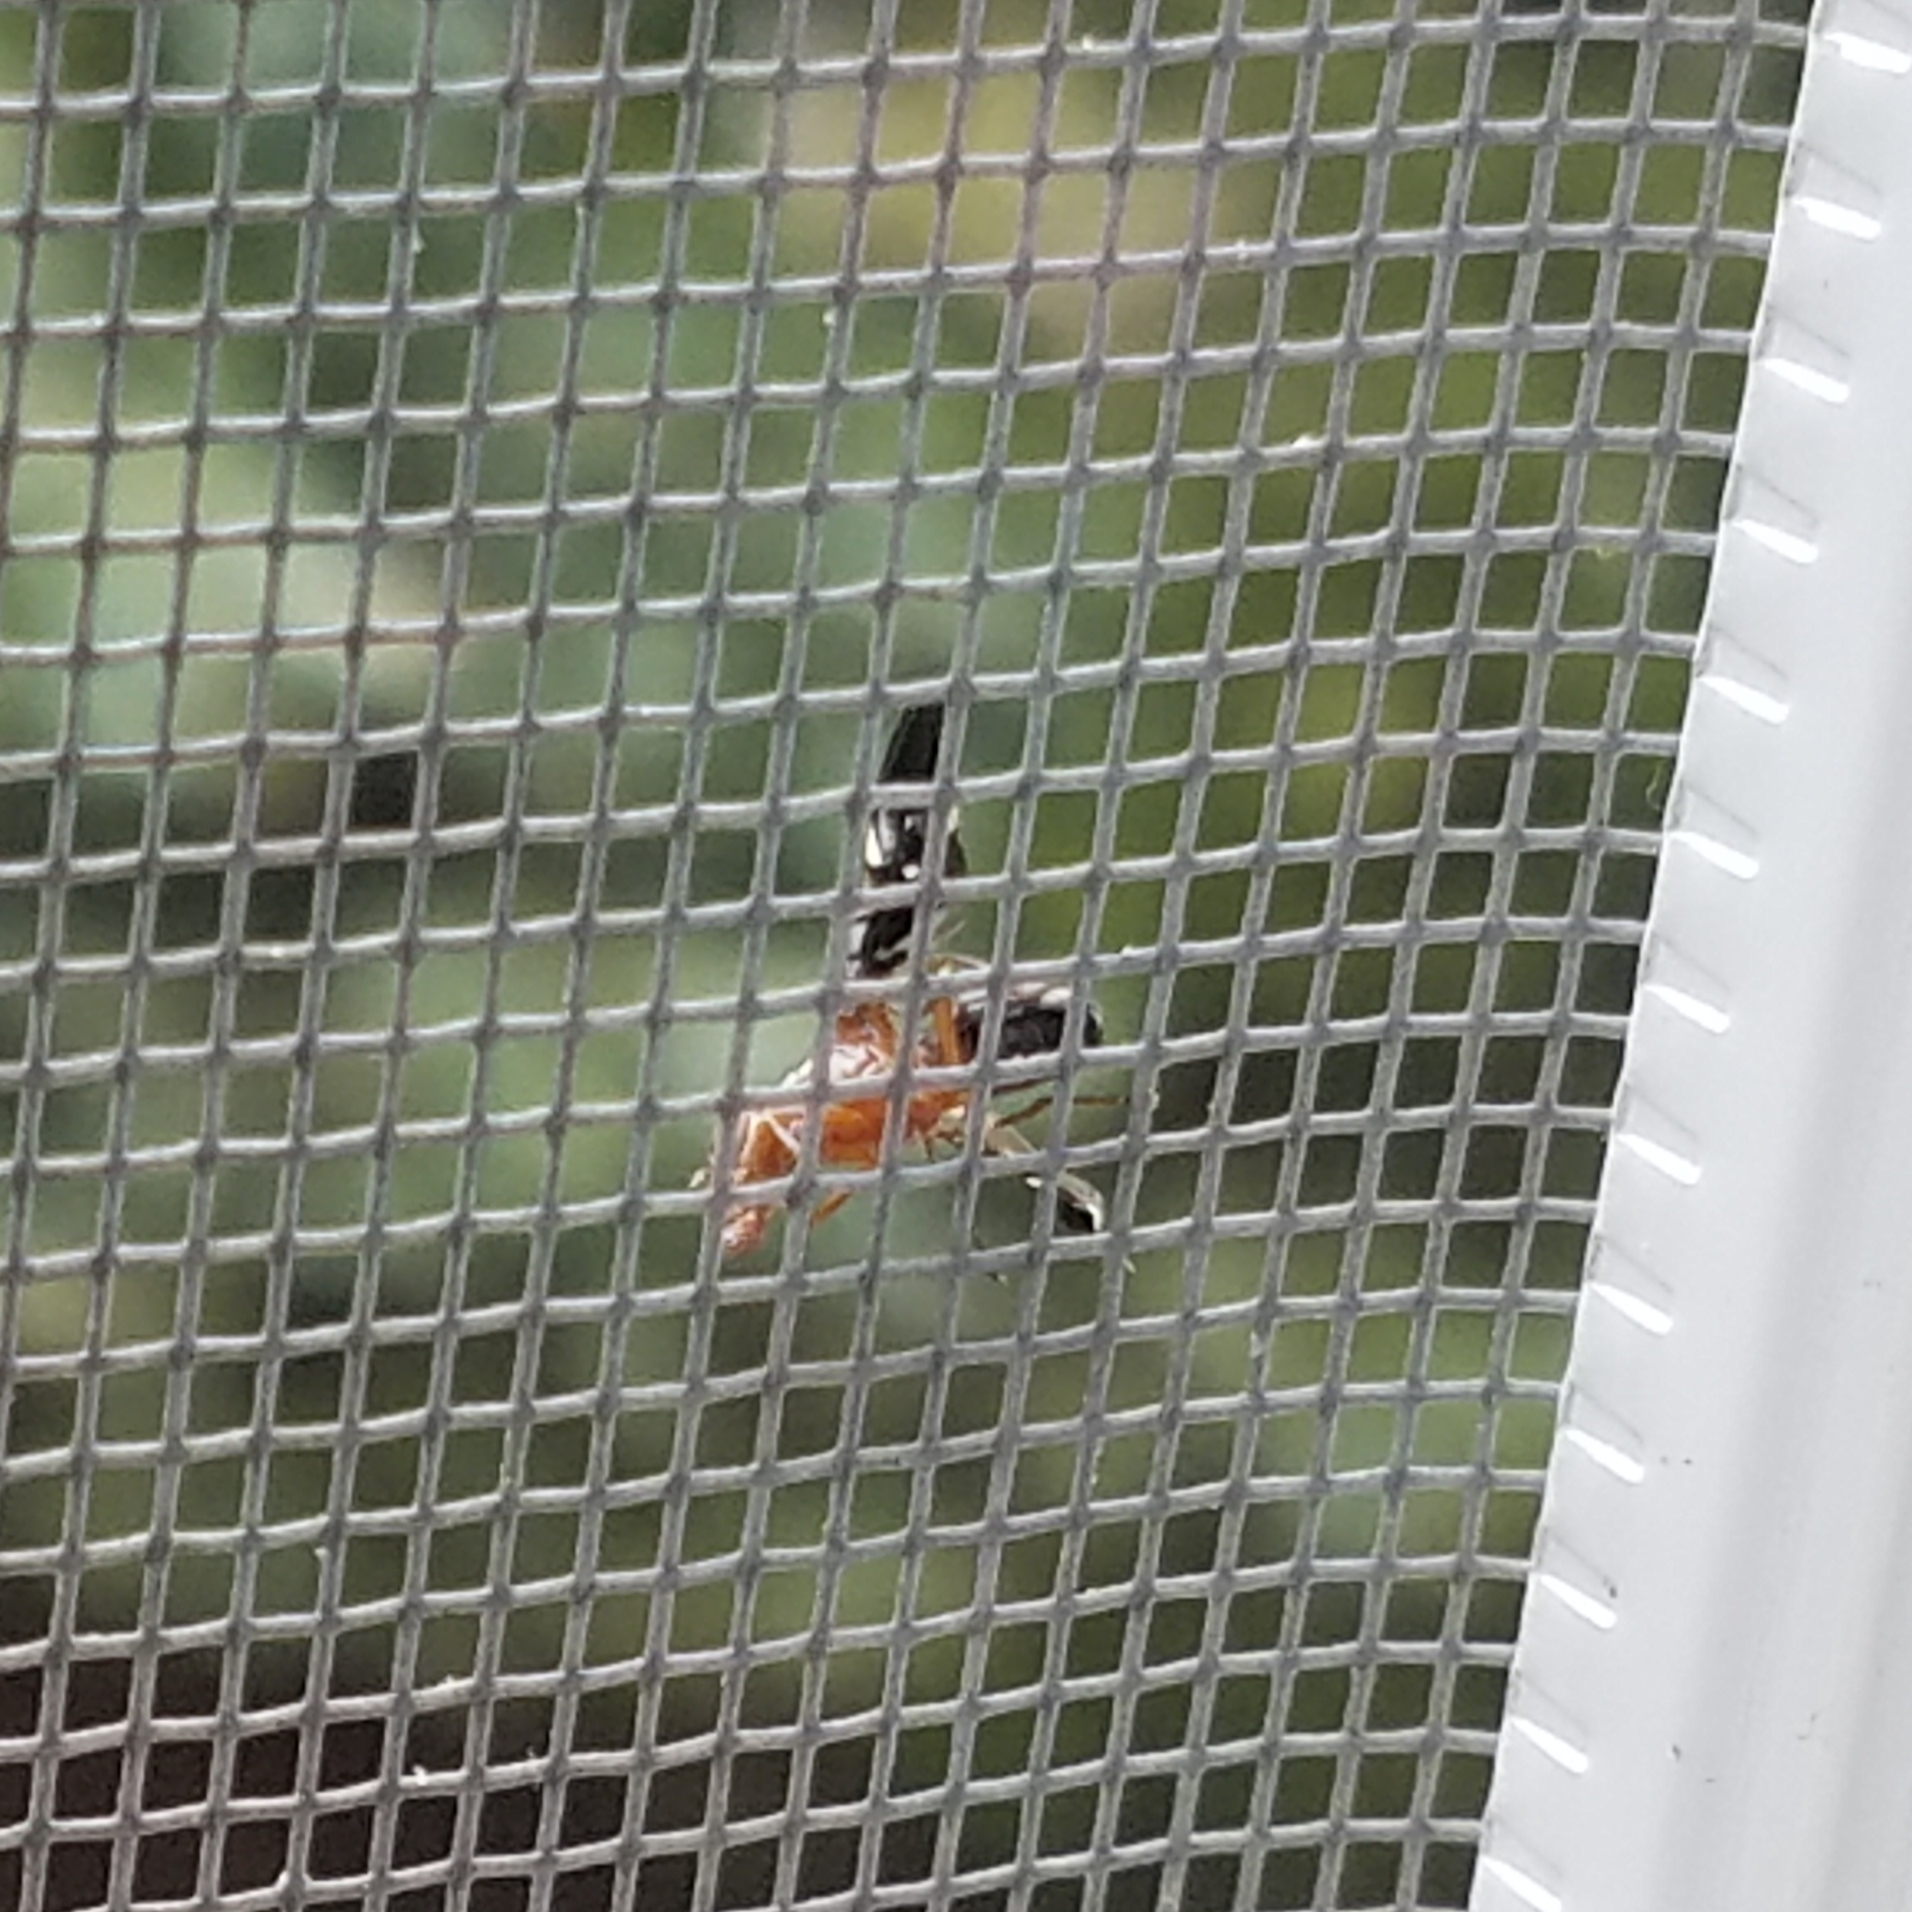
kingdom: Animalia
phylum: Arthropoda
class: Insecta
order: Diptera
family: Ulidiidae
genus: Delphinia
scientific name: Delphinia picta
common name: Common picture-winged fly
